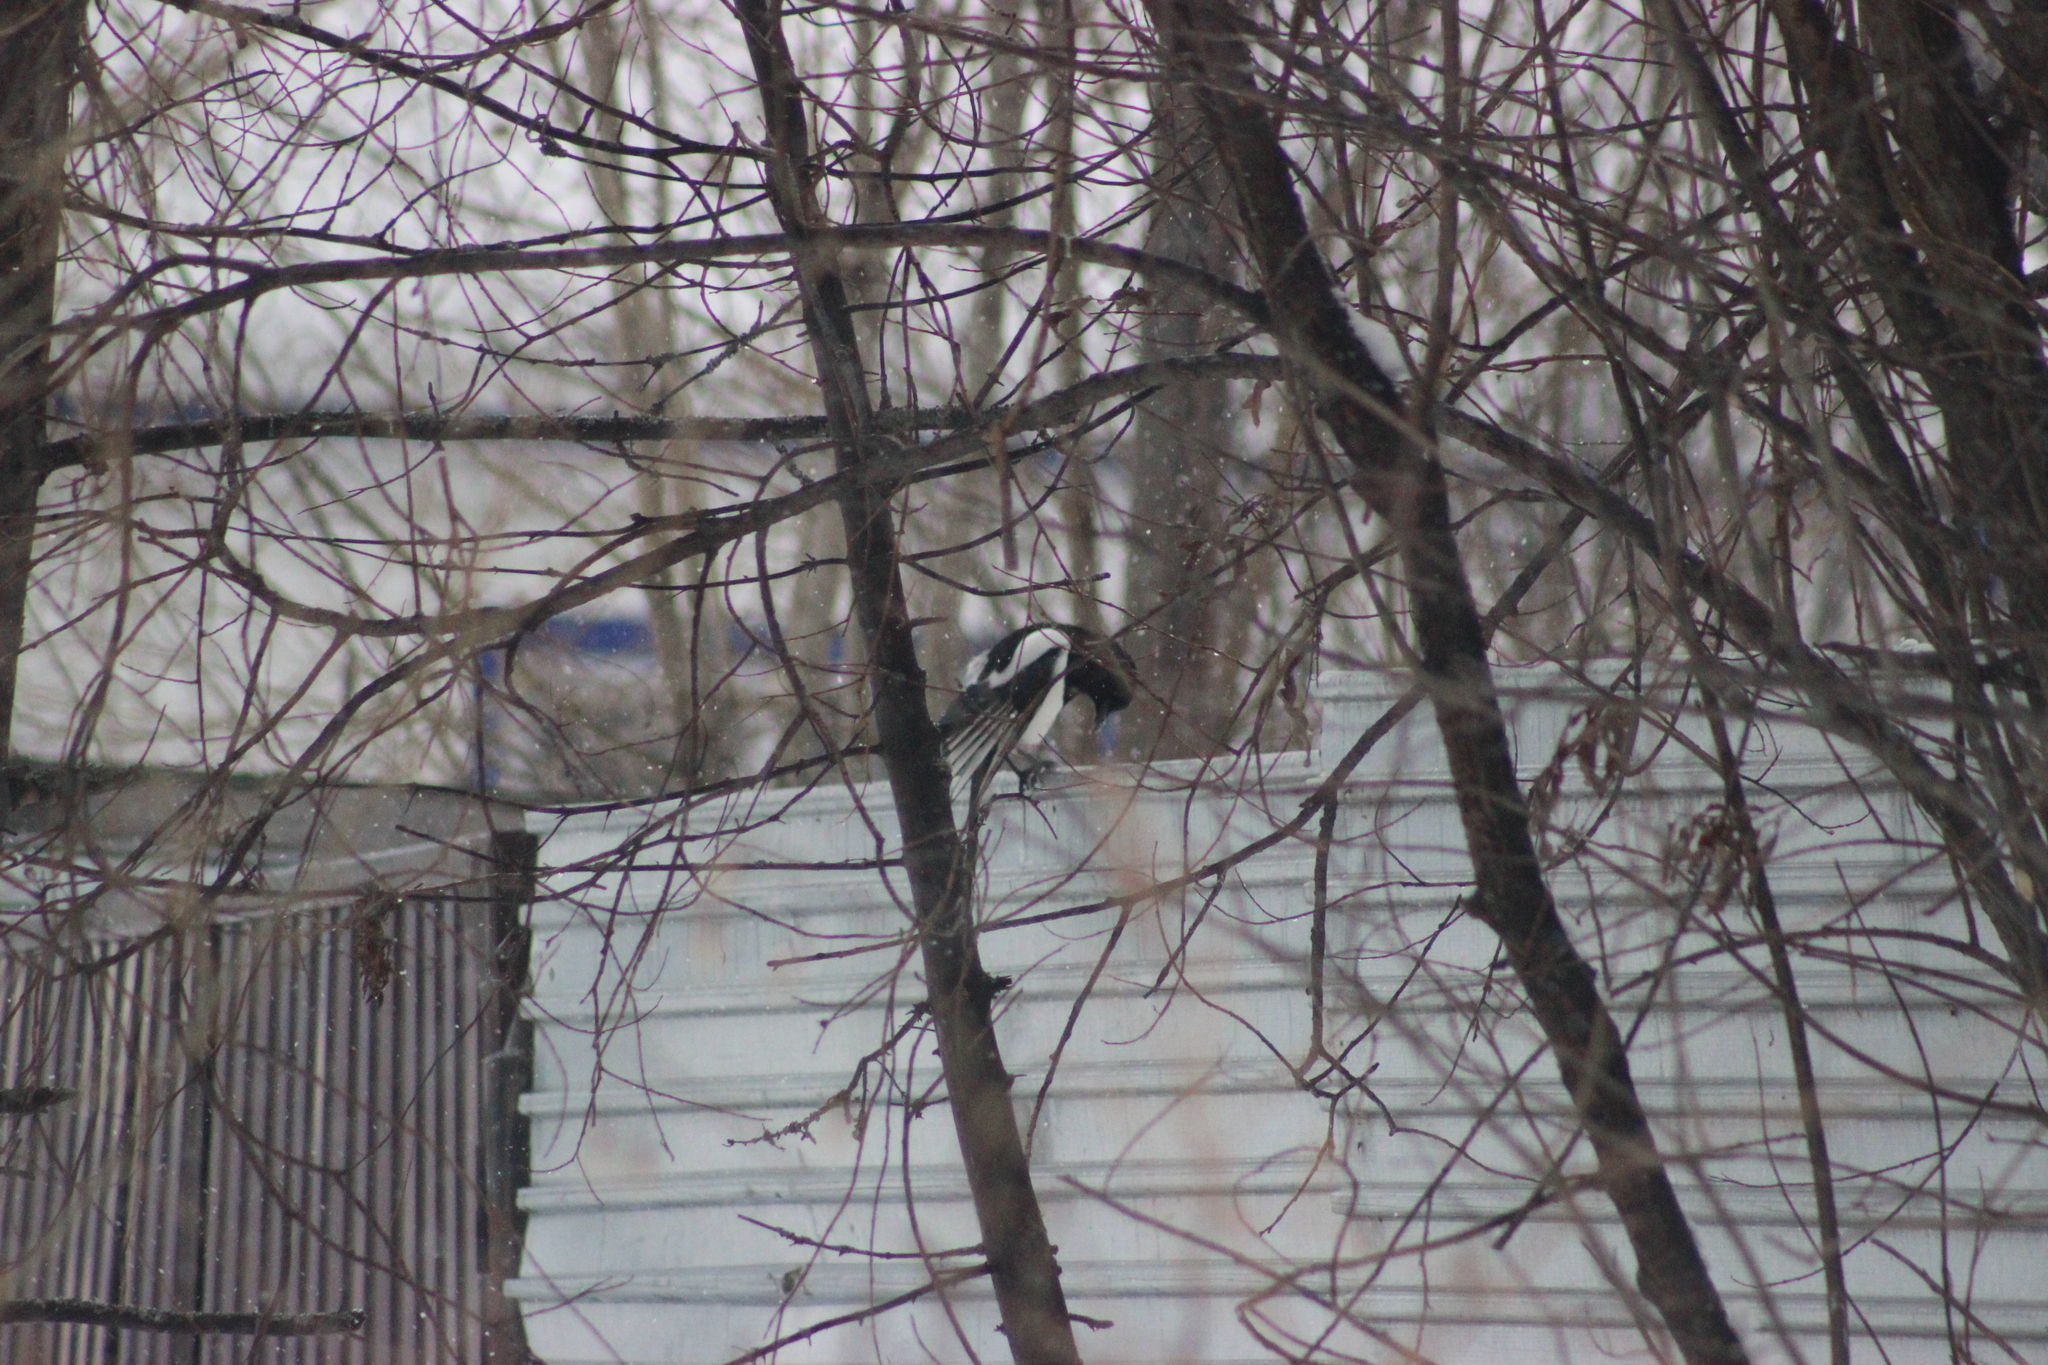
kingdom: Animalia
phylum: Chordata
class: Aves
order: Passeriformes
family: Corvidae
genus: Pica
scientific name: Pica pica
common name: Eurasian magpie
